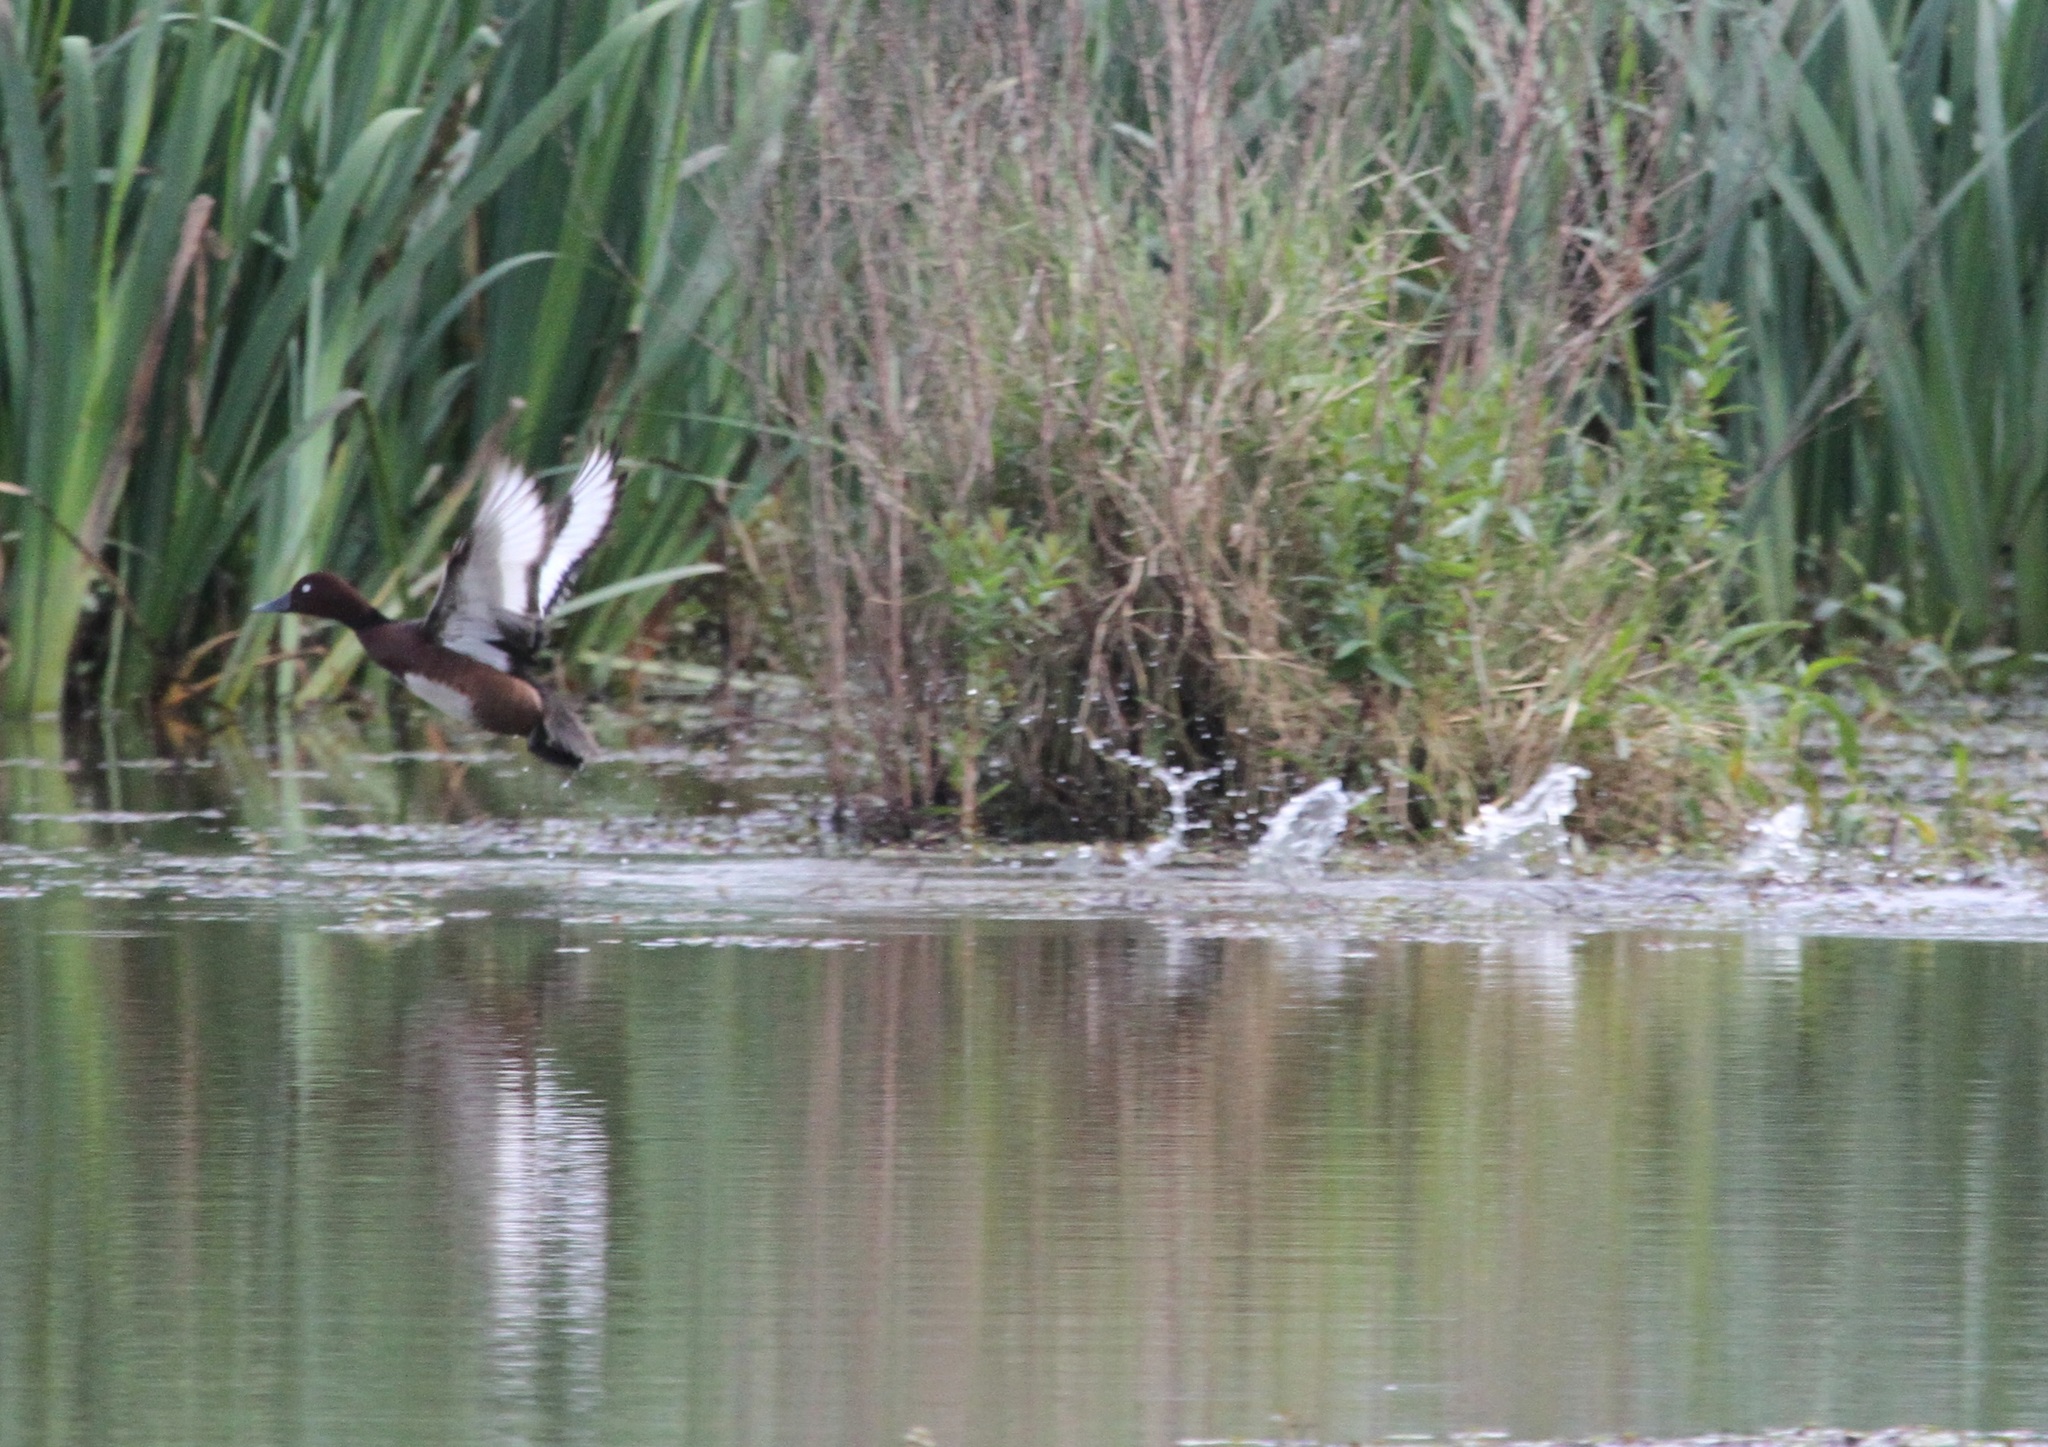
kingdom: Animalia
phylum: Chordata
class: Aves
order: Anseriformes
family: Anatidae
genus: Aythya
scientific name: Aythya nyroca
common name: Ferruginous duck
